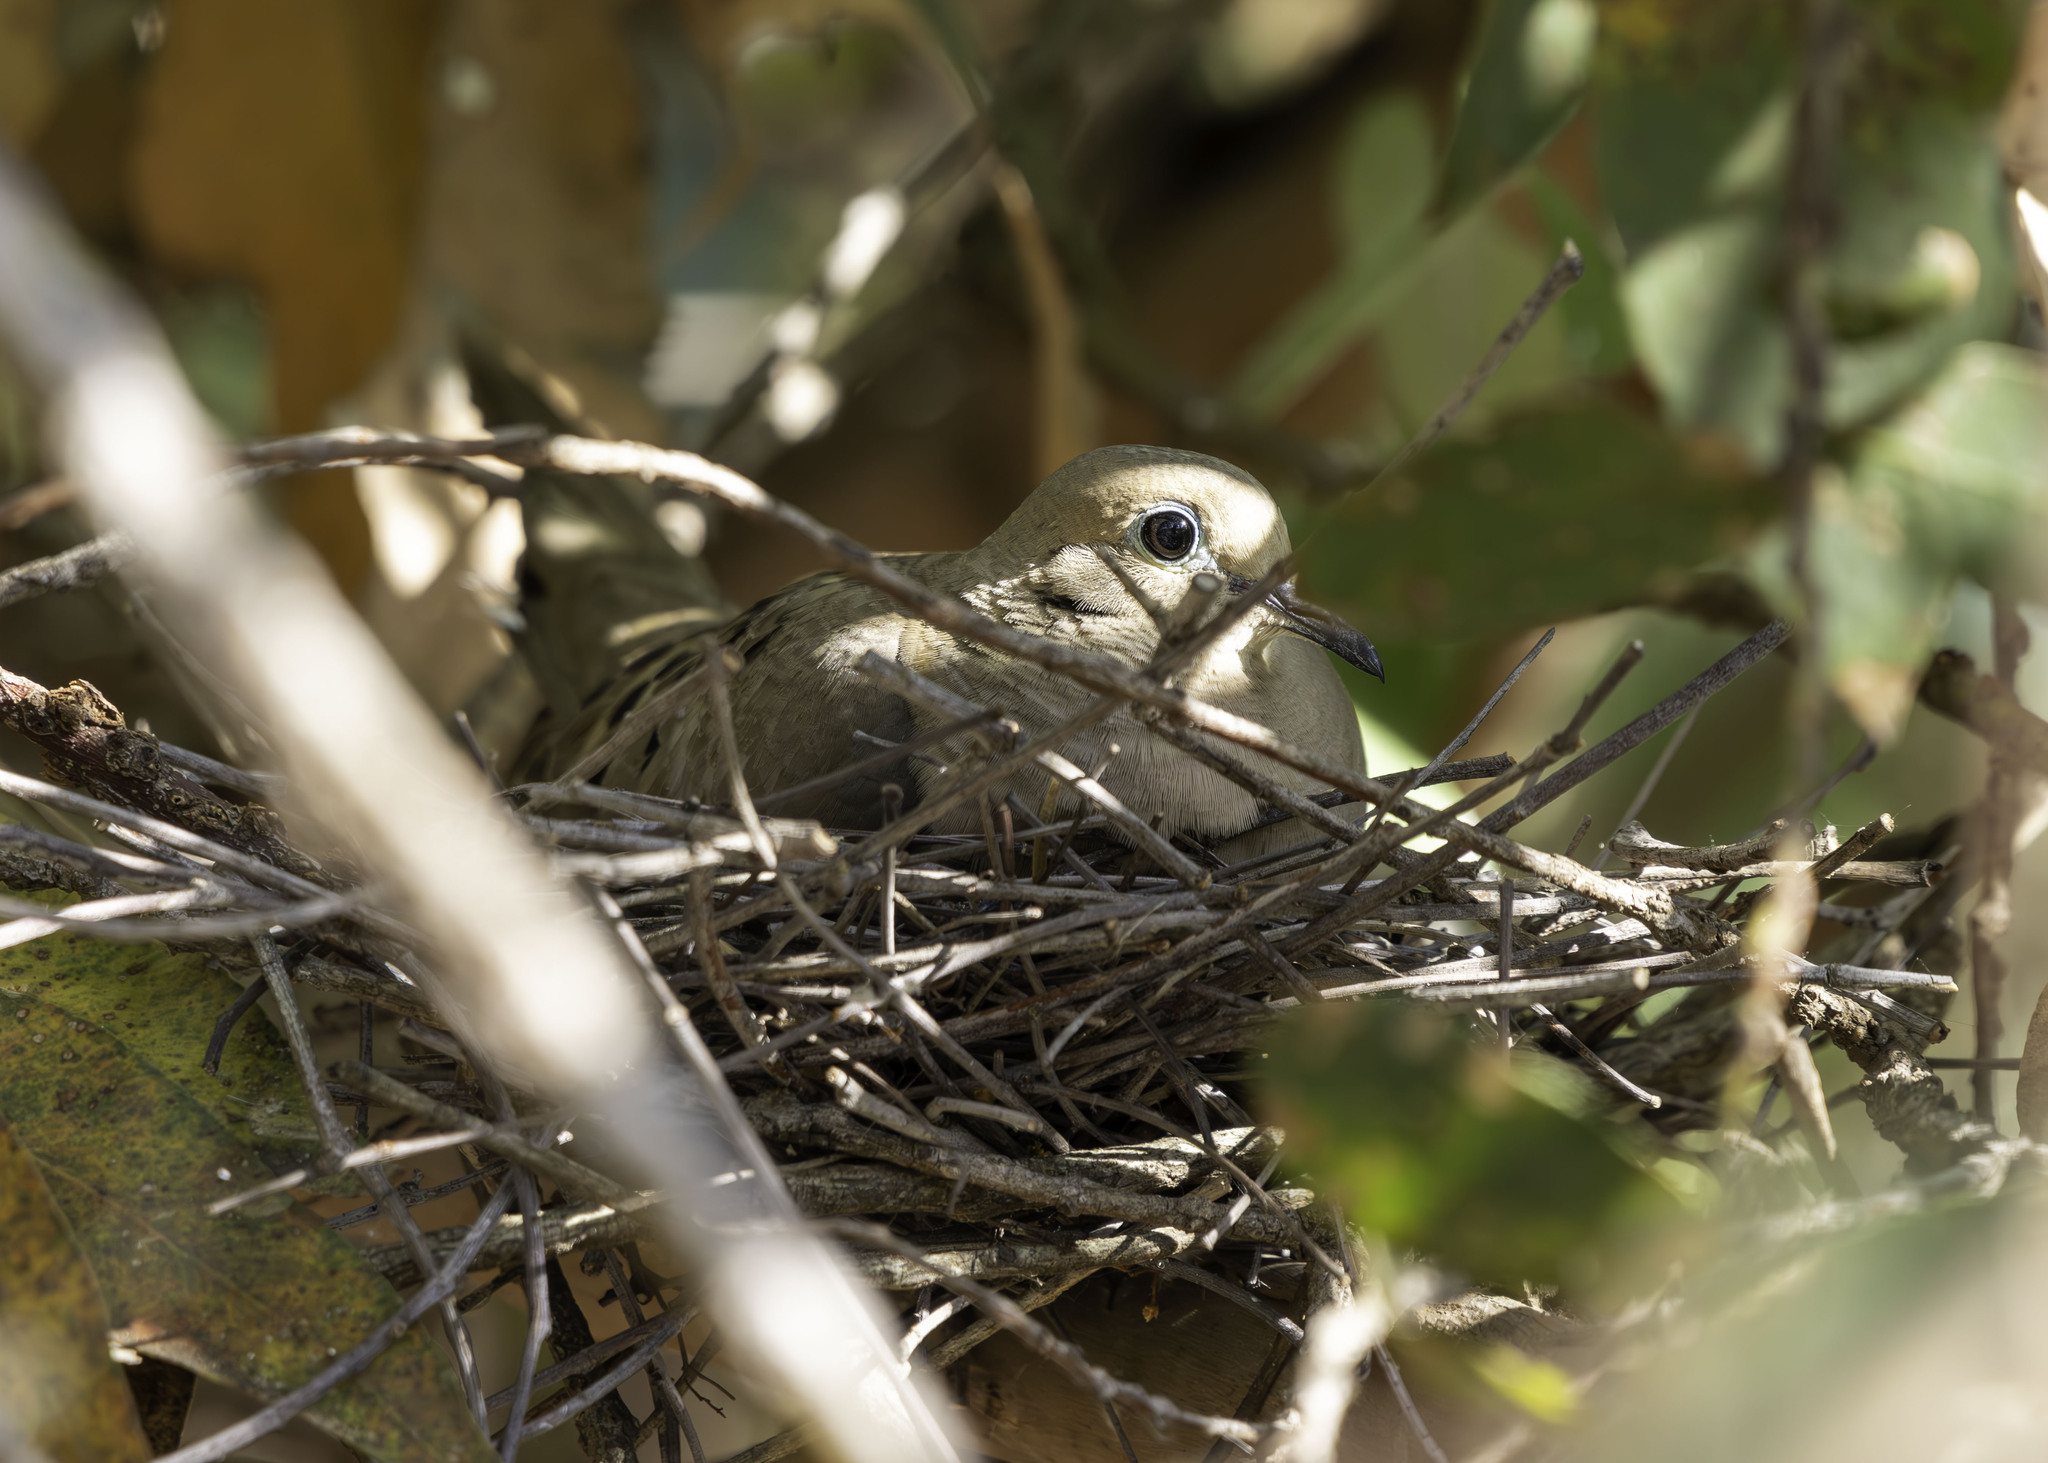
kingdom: Animalia
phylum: Chordata
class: Aves
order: Columbiformes
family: Columbidae
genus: Zenaida
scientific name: Zenaida macroura
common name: Mourning dove
